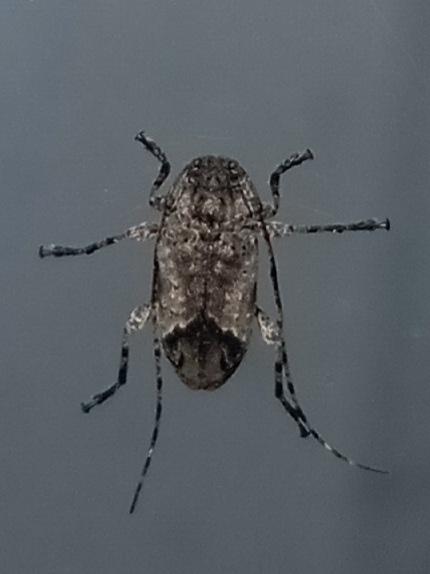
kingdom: Animalia
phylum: Arthropoda
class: Insecta
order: Coleoptera
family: Cerambycidae
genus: Styloleptus
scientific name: Styloleptus biustus
